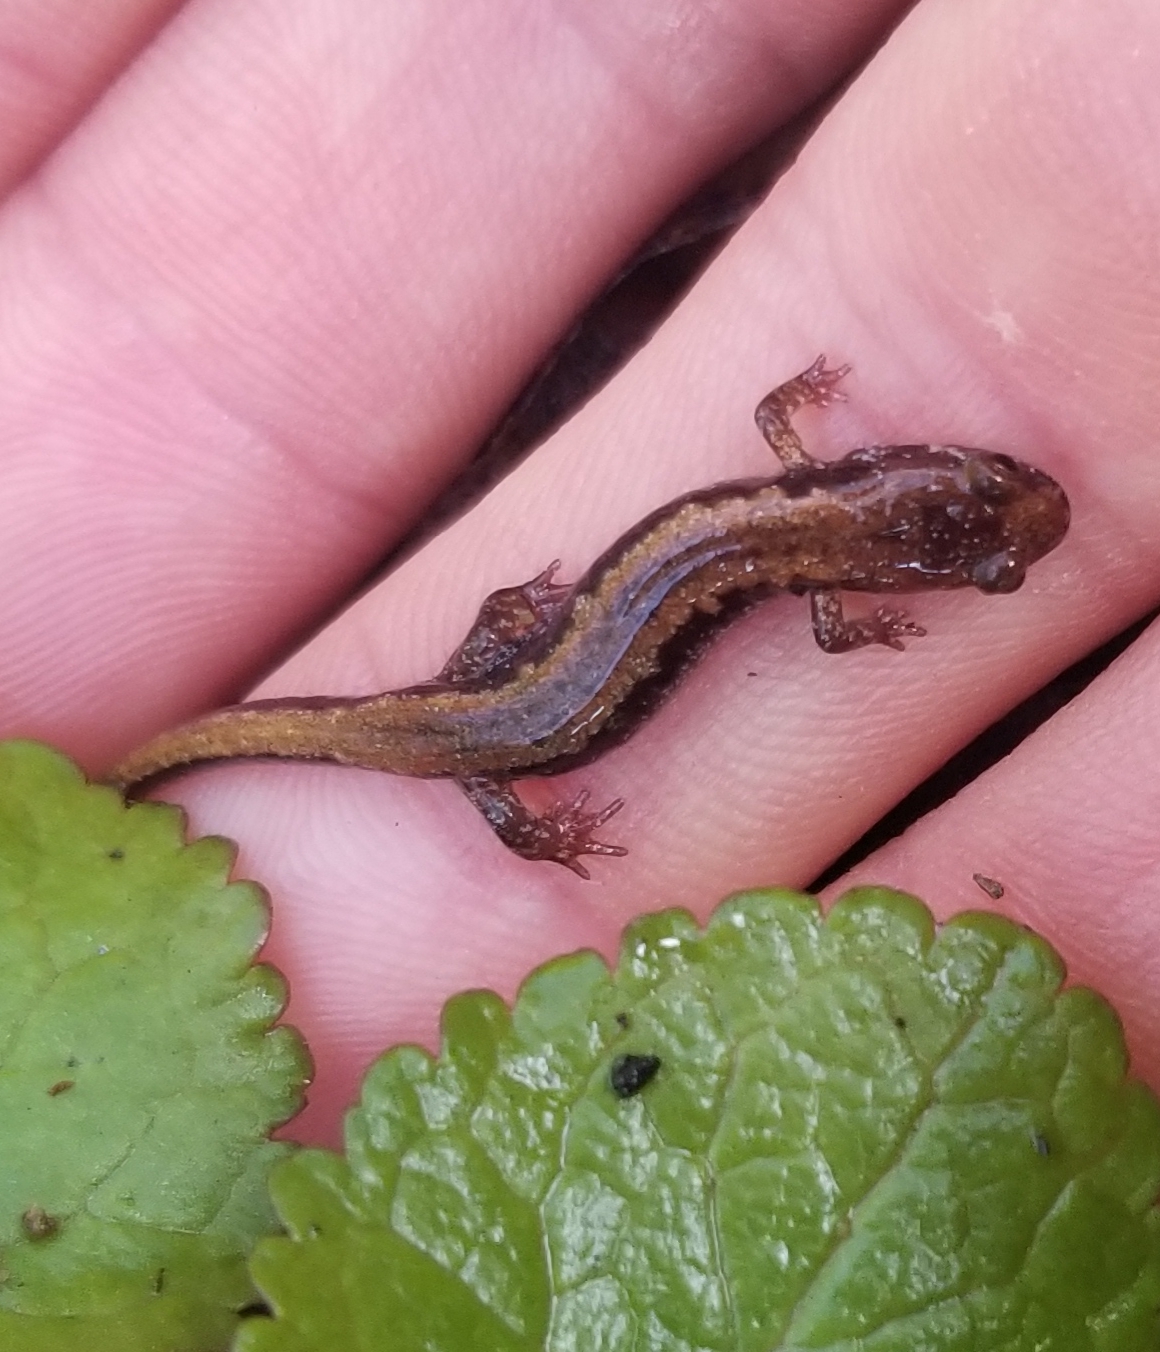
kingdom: Animalia
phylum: Chordata
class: Amphibia
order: Caudata
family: Plethodontidae
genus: Desmognathus
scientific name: Desmognathus carolinensis
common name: Carolina mountain dusky salamander
